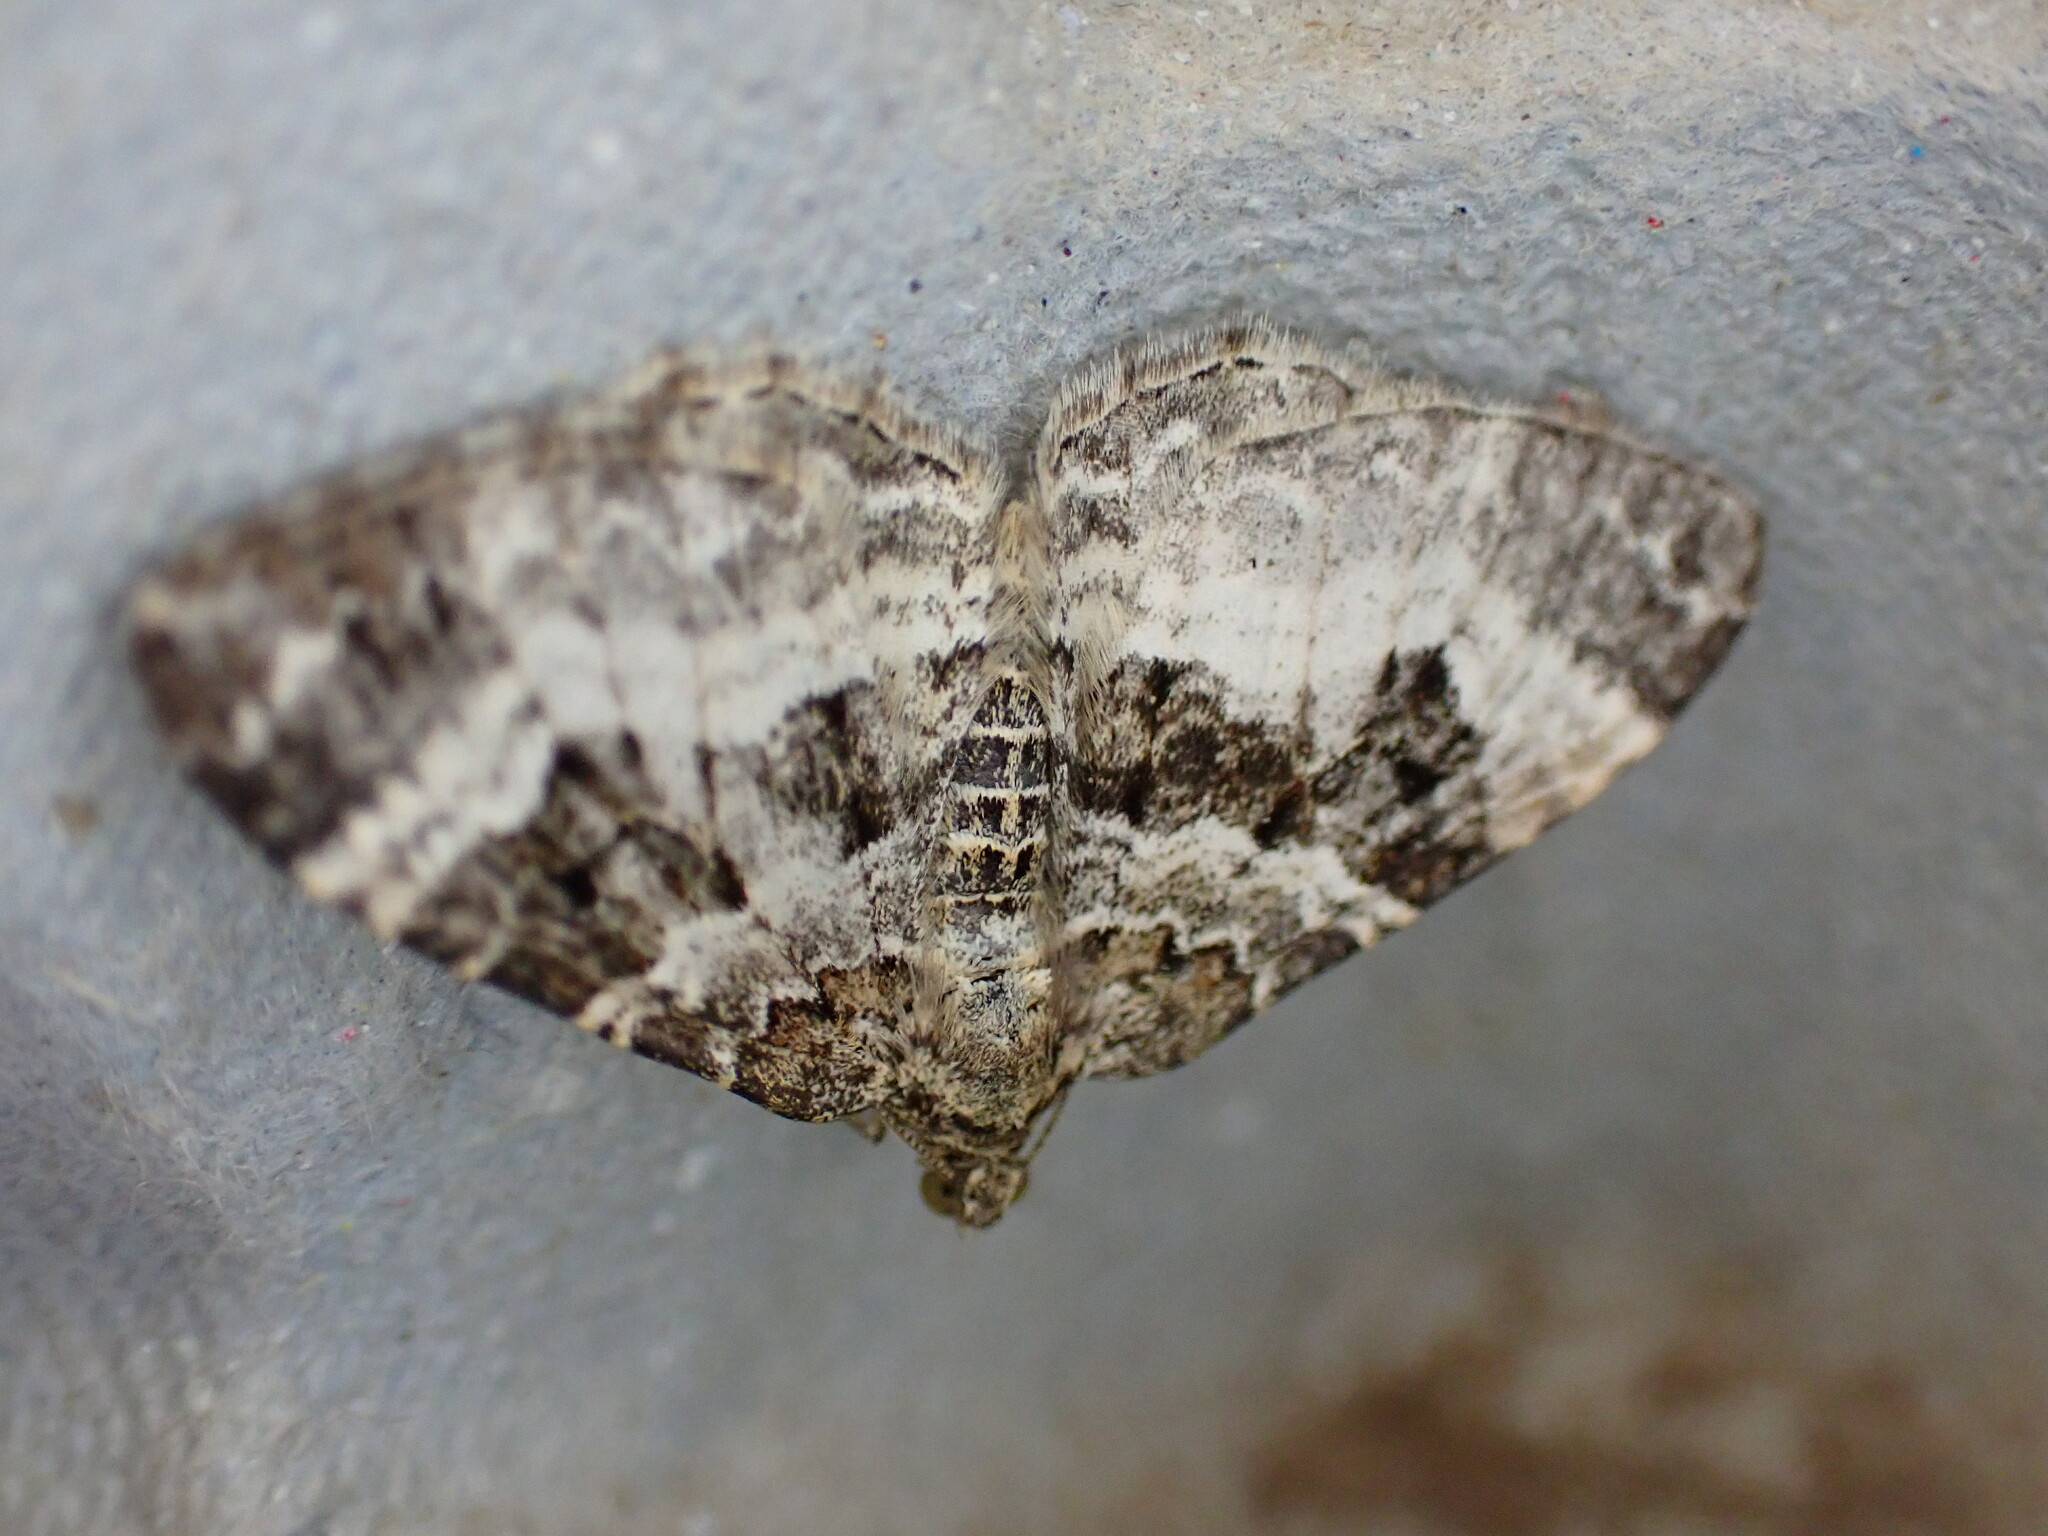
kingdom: Animalia
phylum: Arthropoda
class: Insecta
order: Lepidoptera
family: Geometridae
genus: Epirrhoe
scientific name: Epirrhoe alternata
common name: Common carpet
